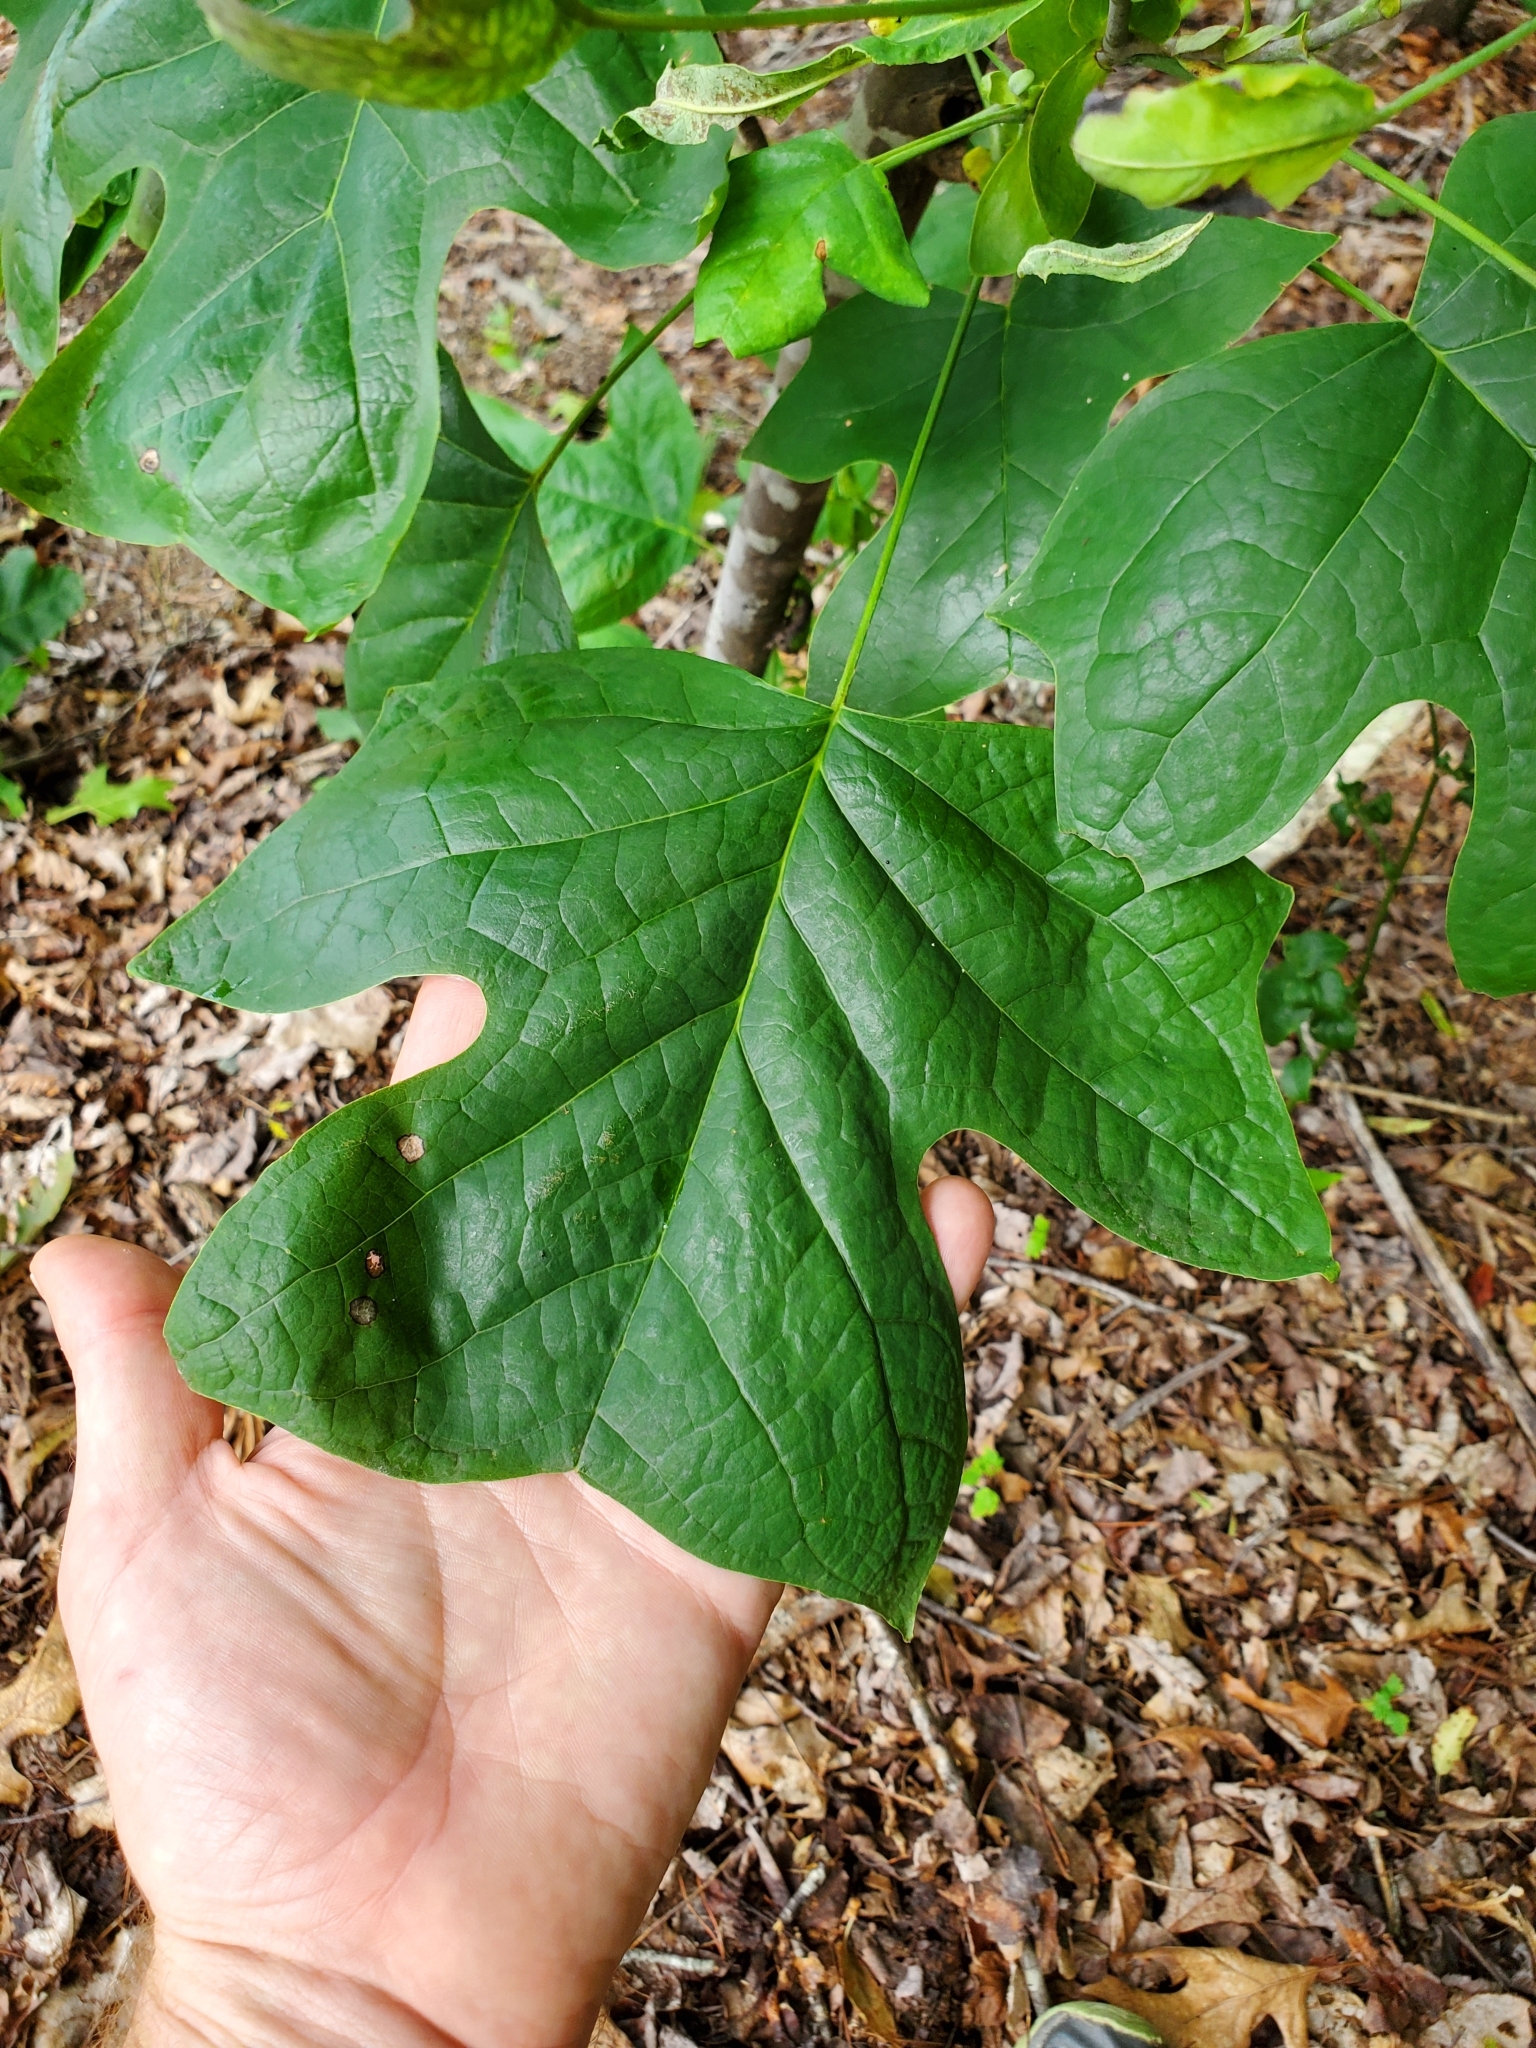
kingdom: Plantae
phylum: Tracheophyta
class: Magnoliopsida
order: Magnoliales
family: Magnoliaceae
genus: Liriodendron
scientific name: Liriodendron tulipifera
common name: Tulip tree
